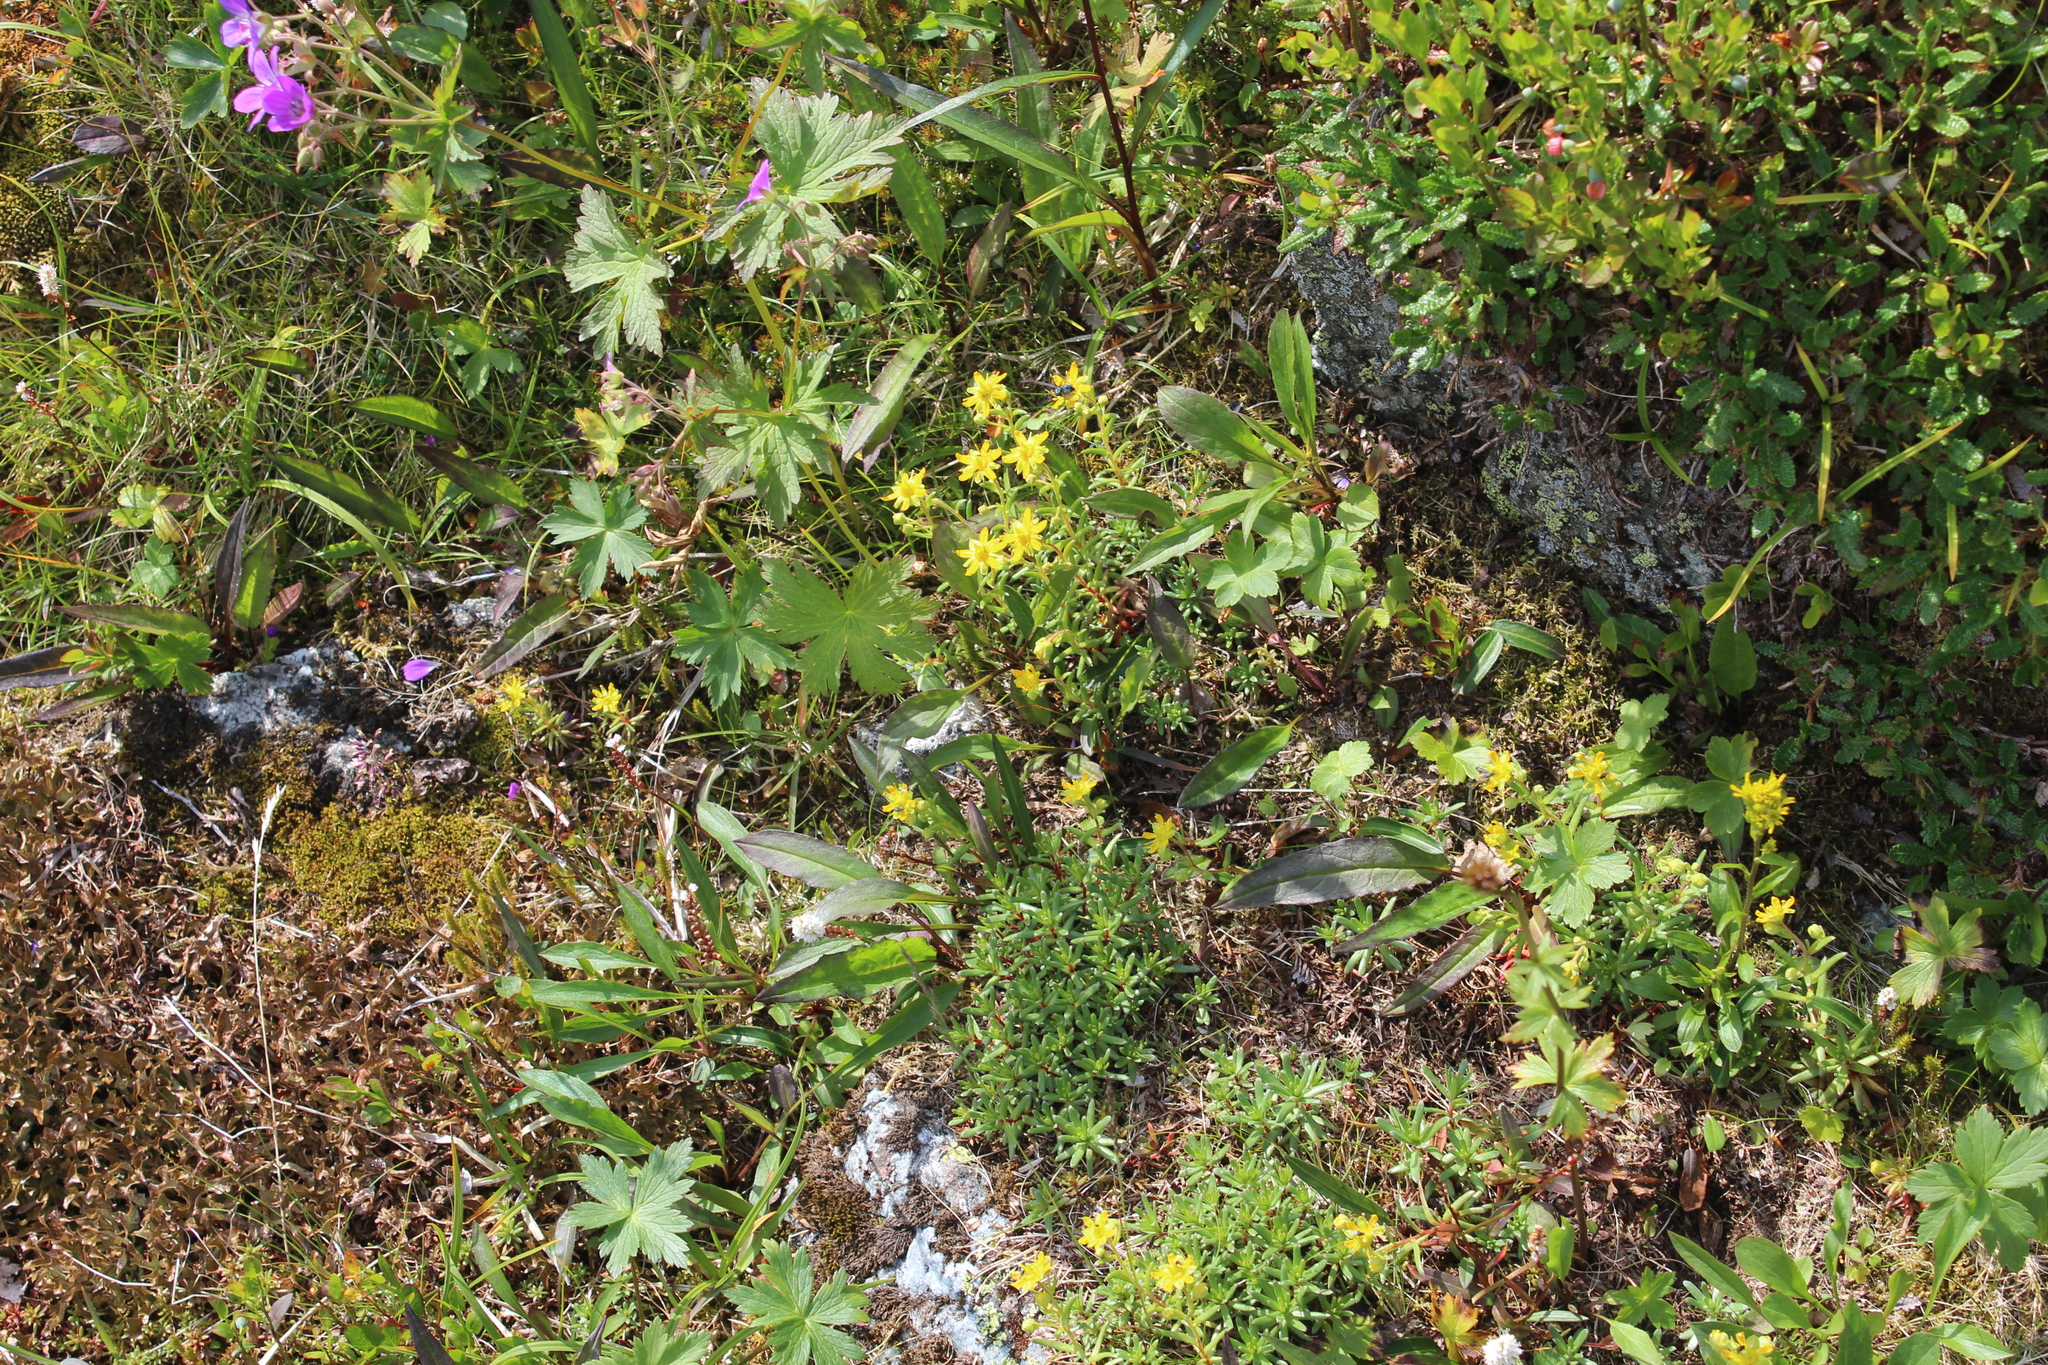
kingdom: Plantae
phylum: Tracheophyta
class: Magnoliopsida
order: Saxifragales
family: Saxifragaceae
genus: Saxifraga
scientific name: Saxifraga aizoides
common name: Yellow mountain saxifrage
